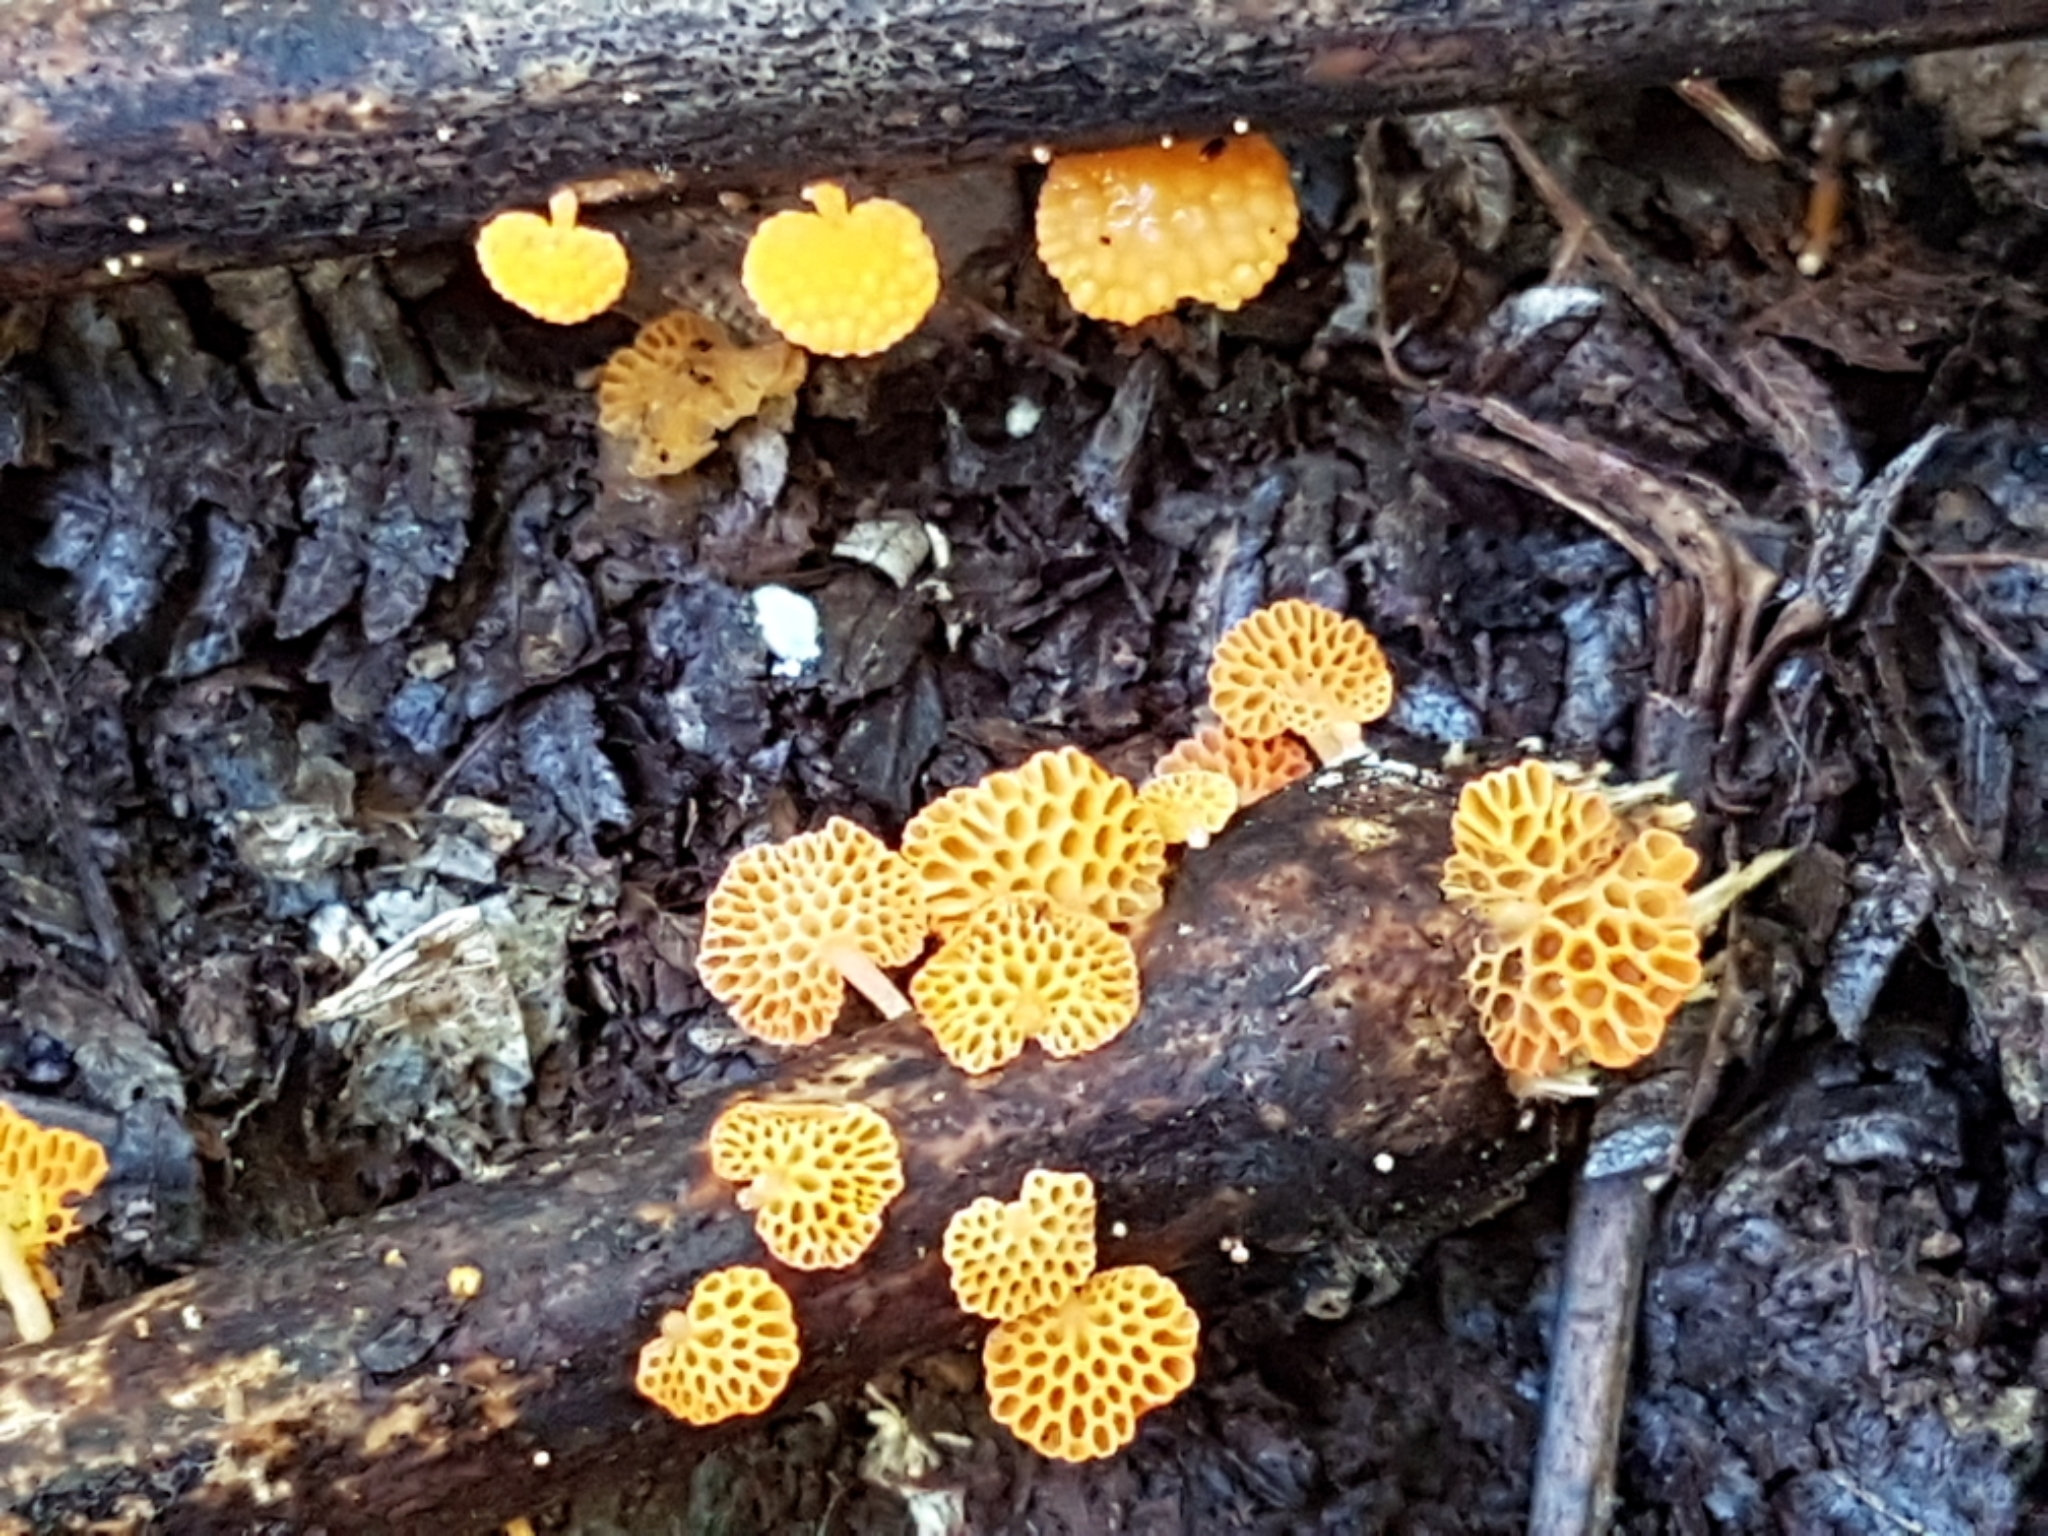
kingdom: Fungi
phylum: Basidiomycota
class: Agaricomycetes
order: Agaricales
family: Mycenaceae
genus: Favolaschia
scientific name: Favolaschia claudopus
